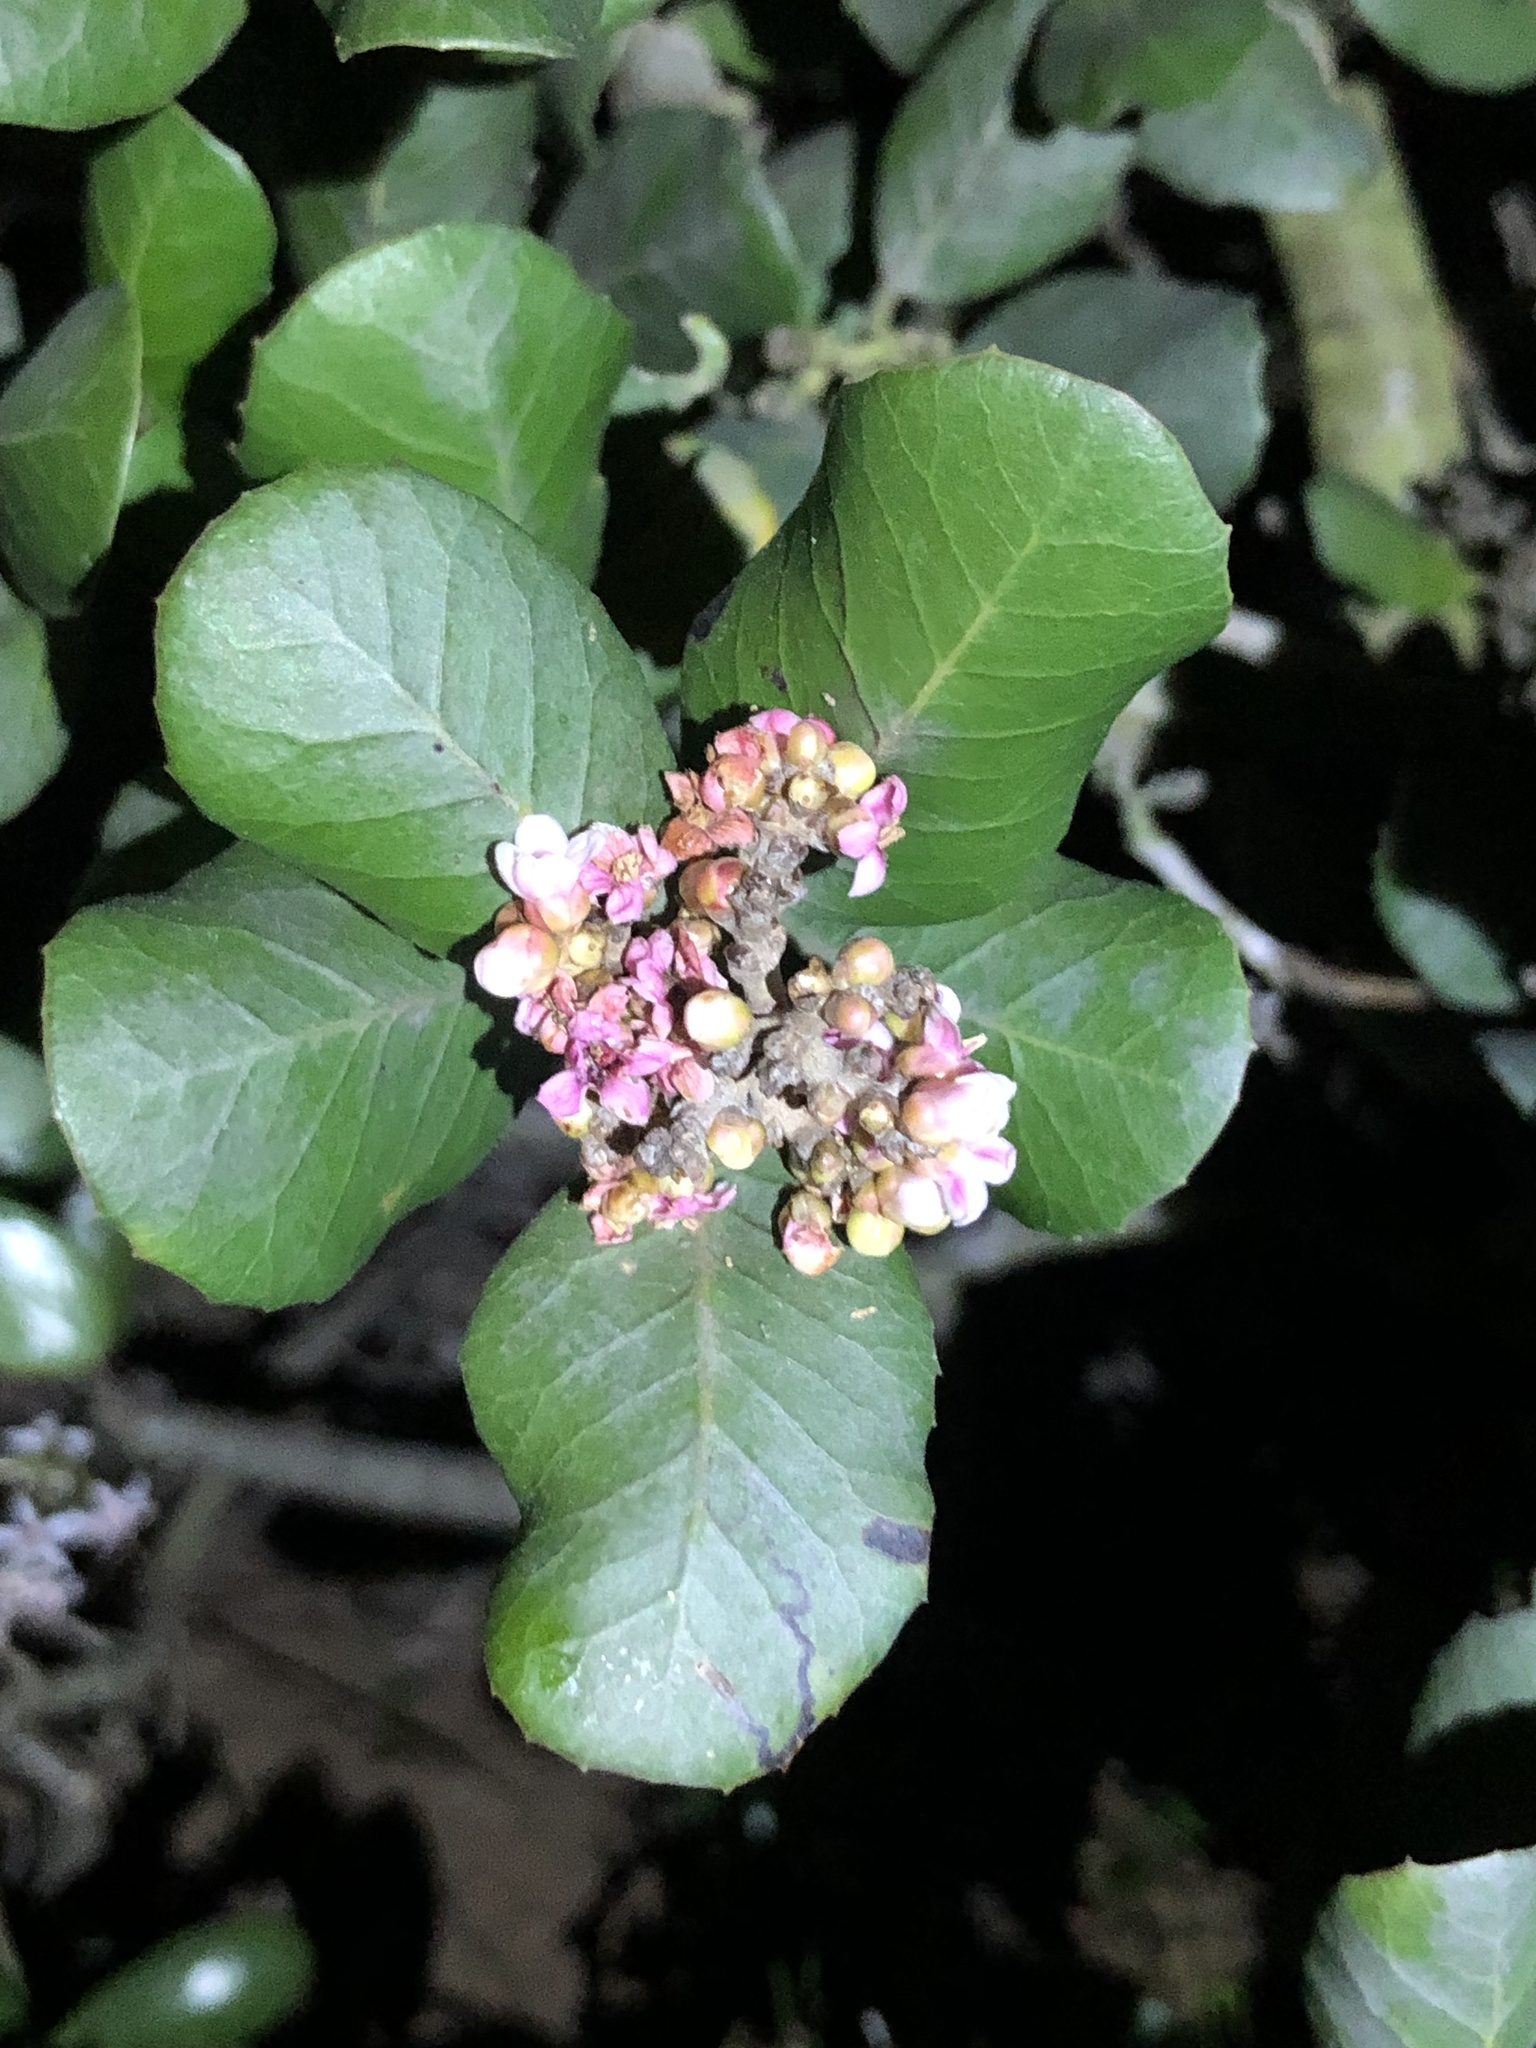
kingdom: Plantae
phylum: Tracheophyta
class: Magnoliopsida
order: Sapindales
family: Anacardiaceae
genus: Rhus
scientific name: Rhus integrifolia
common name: Lemonade sumac
